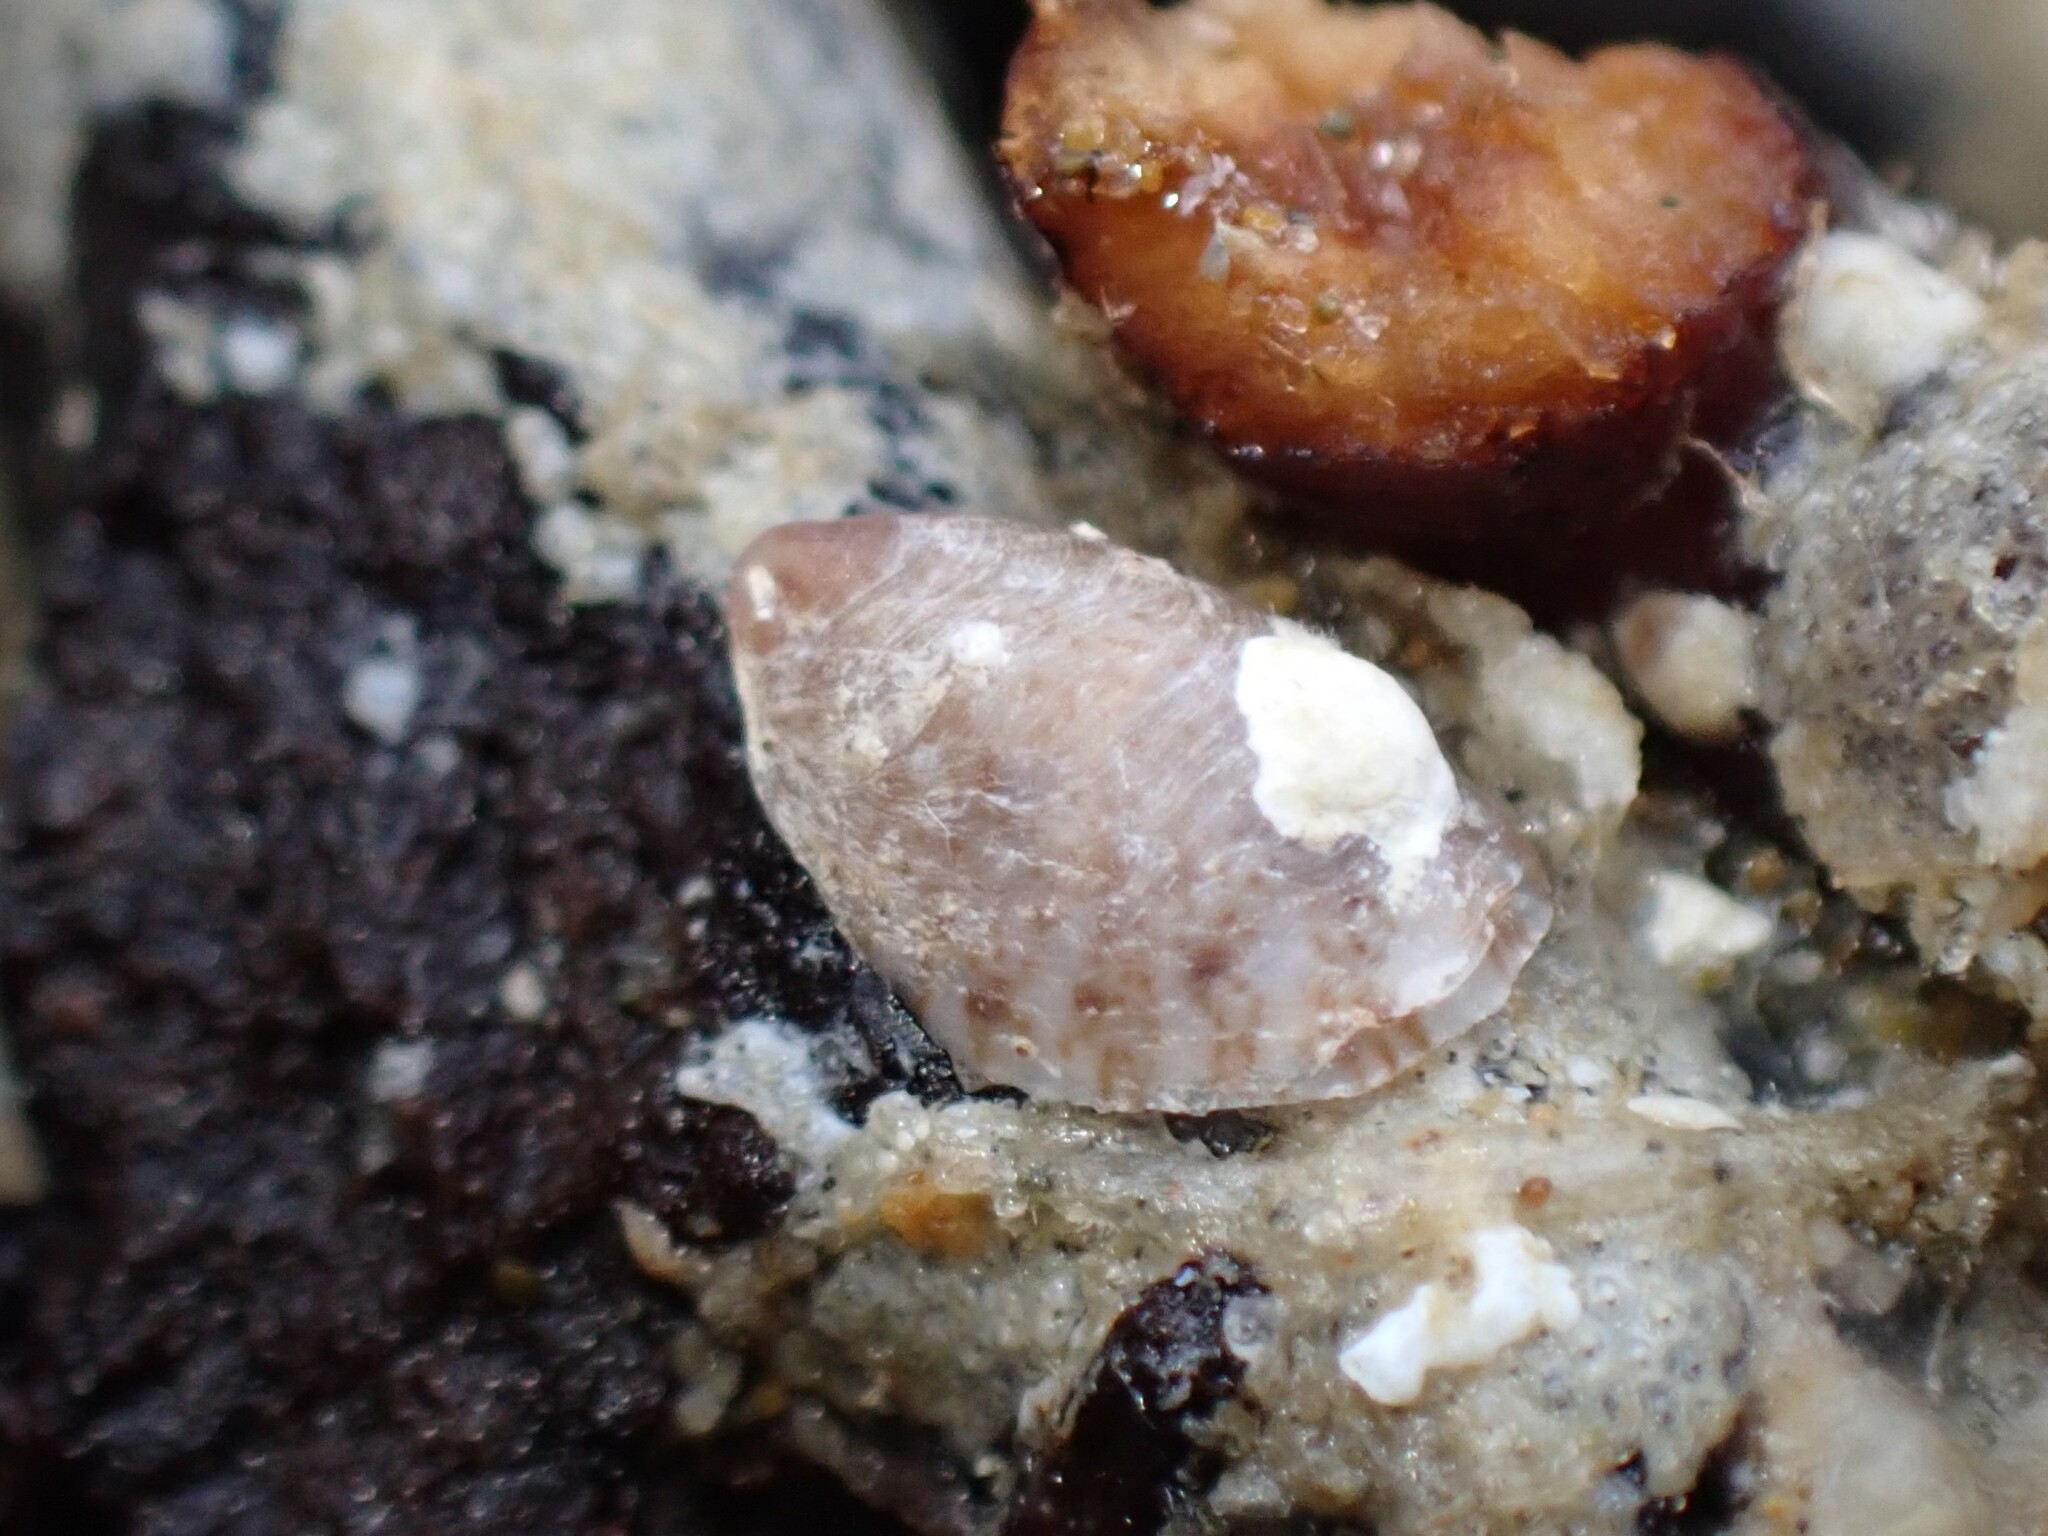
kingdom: Animalia
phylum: Mollusca
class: Gastropoda
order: Littorinimorpha
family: Calyptraeidae
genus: Maoricrypta
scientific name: Maoricrypta costata
